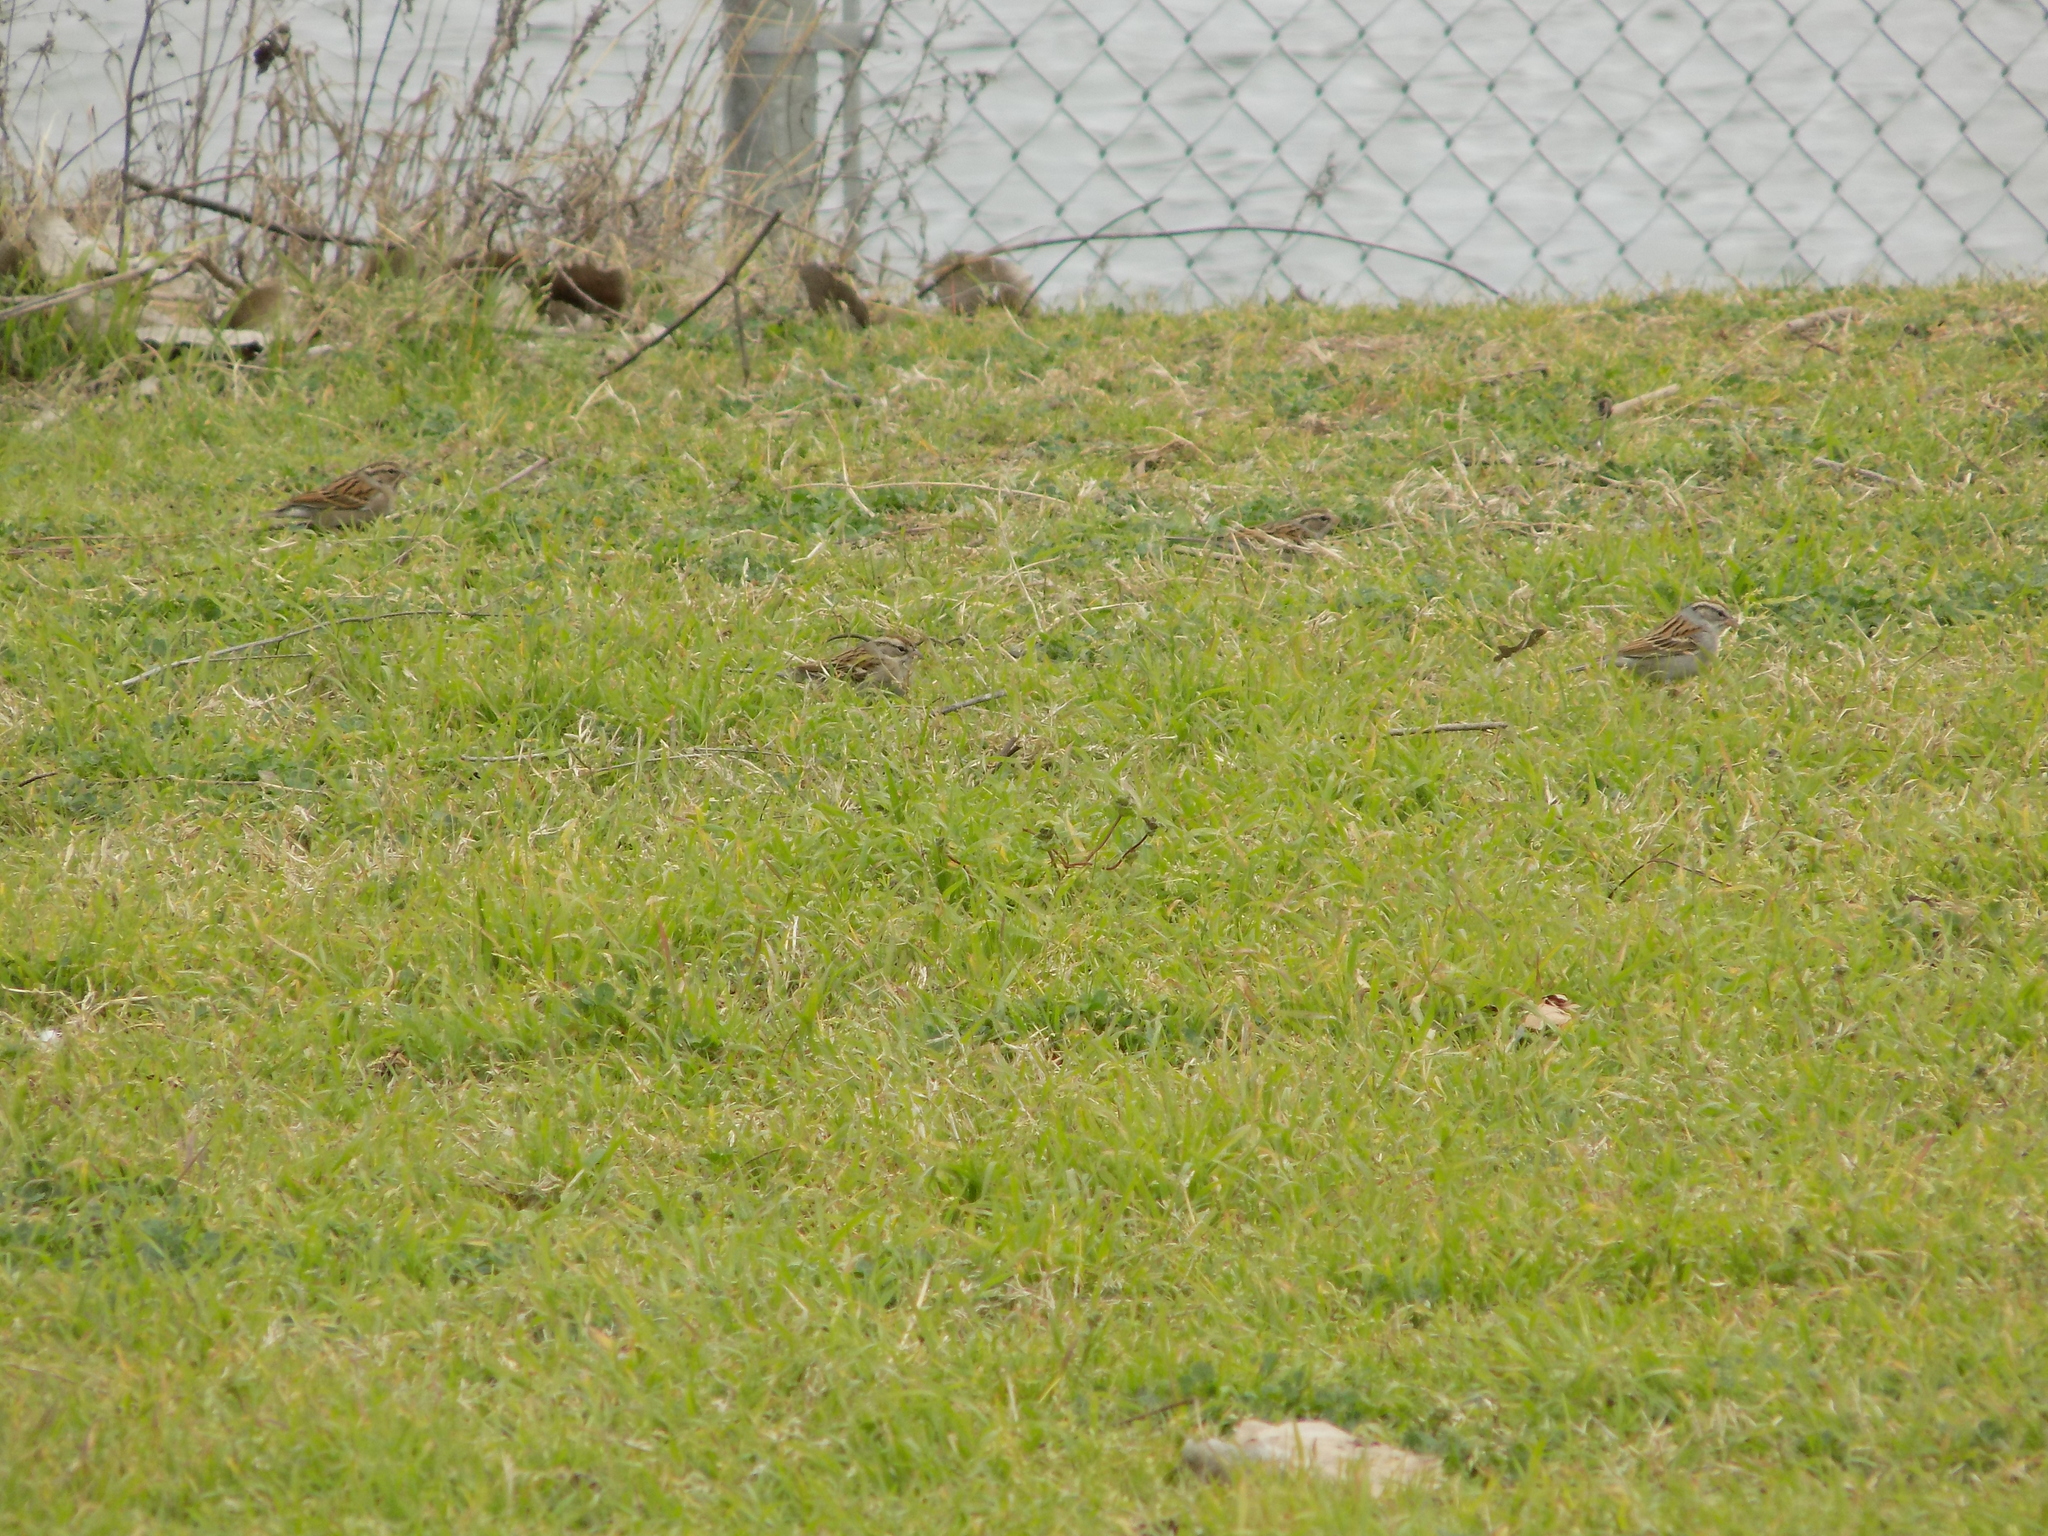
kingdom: Animalia
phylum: Chordata
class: Aves
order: Passeriformes
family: Passerellidae
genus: Spizella
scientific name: Spizella passerina
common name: Chipping sparrow
